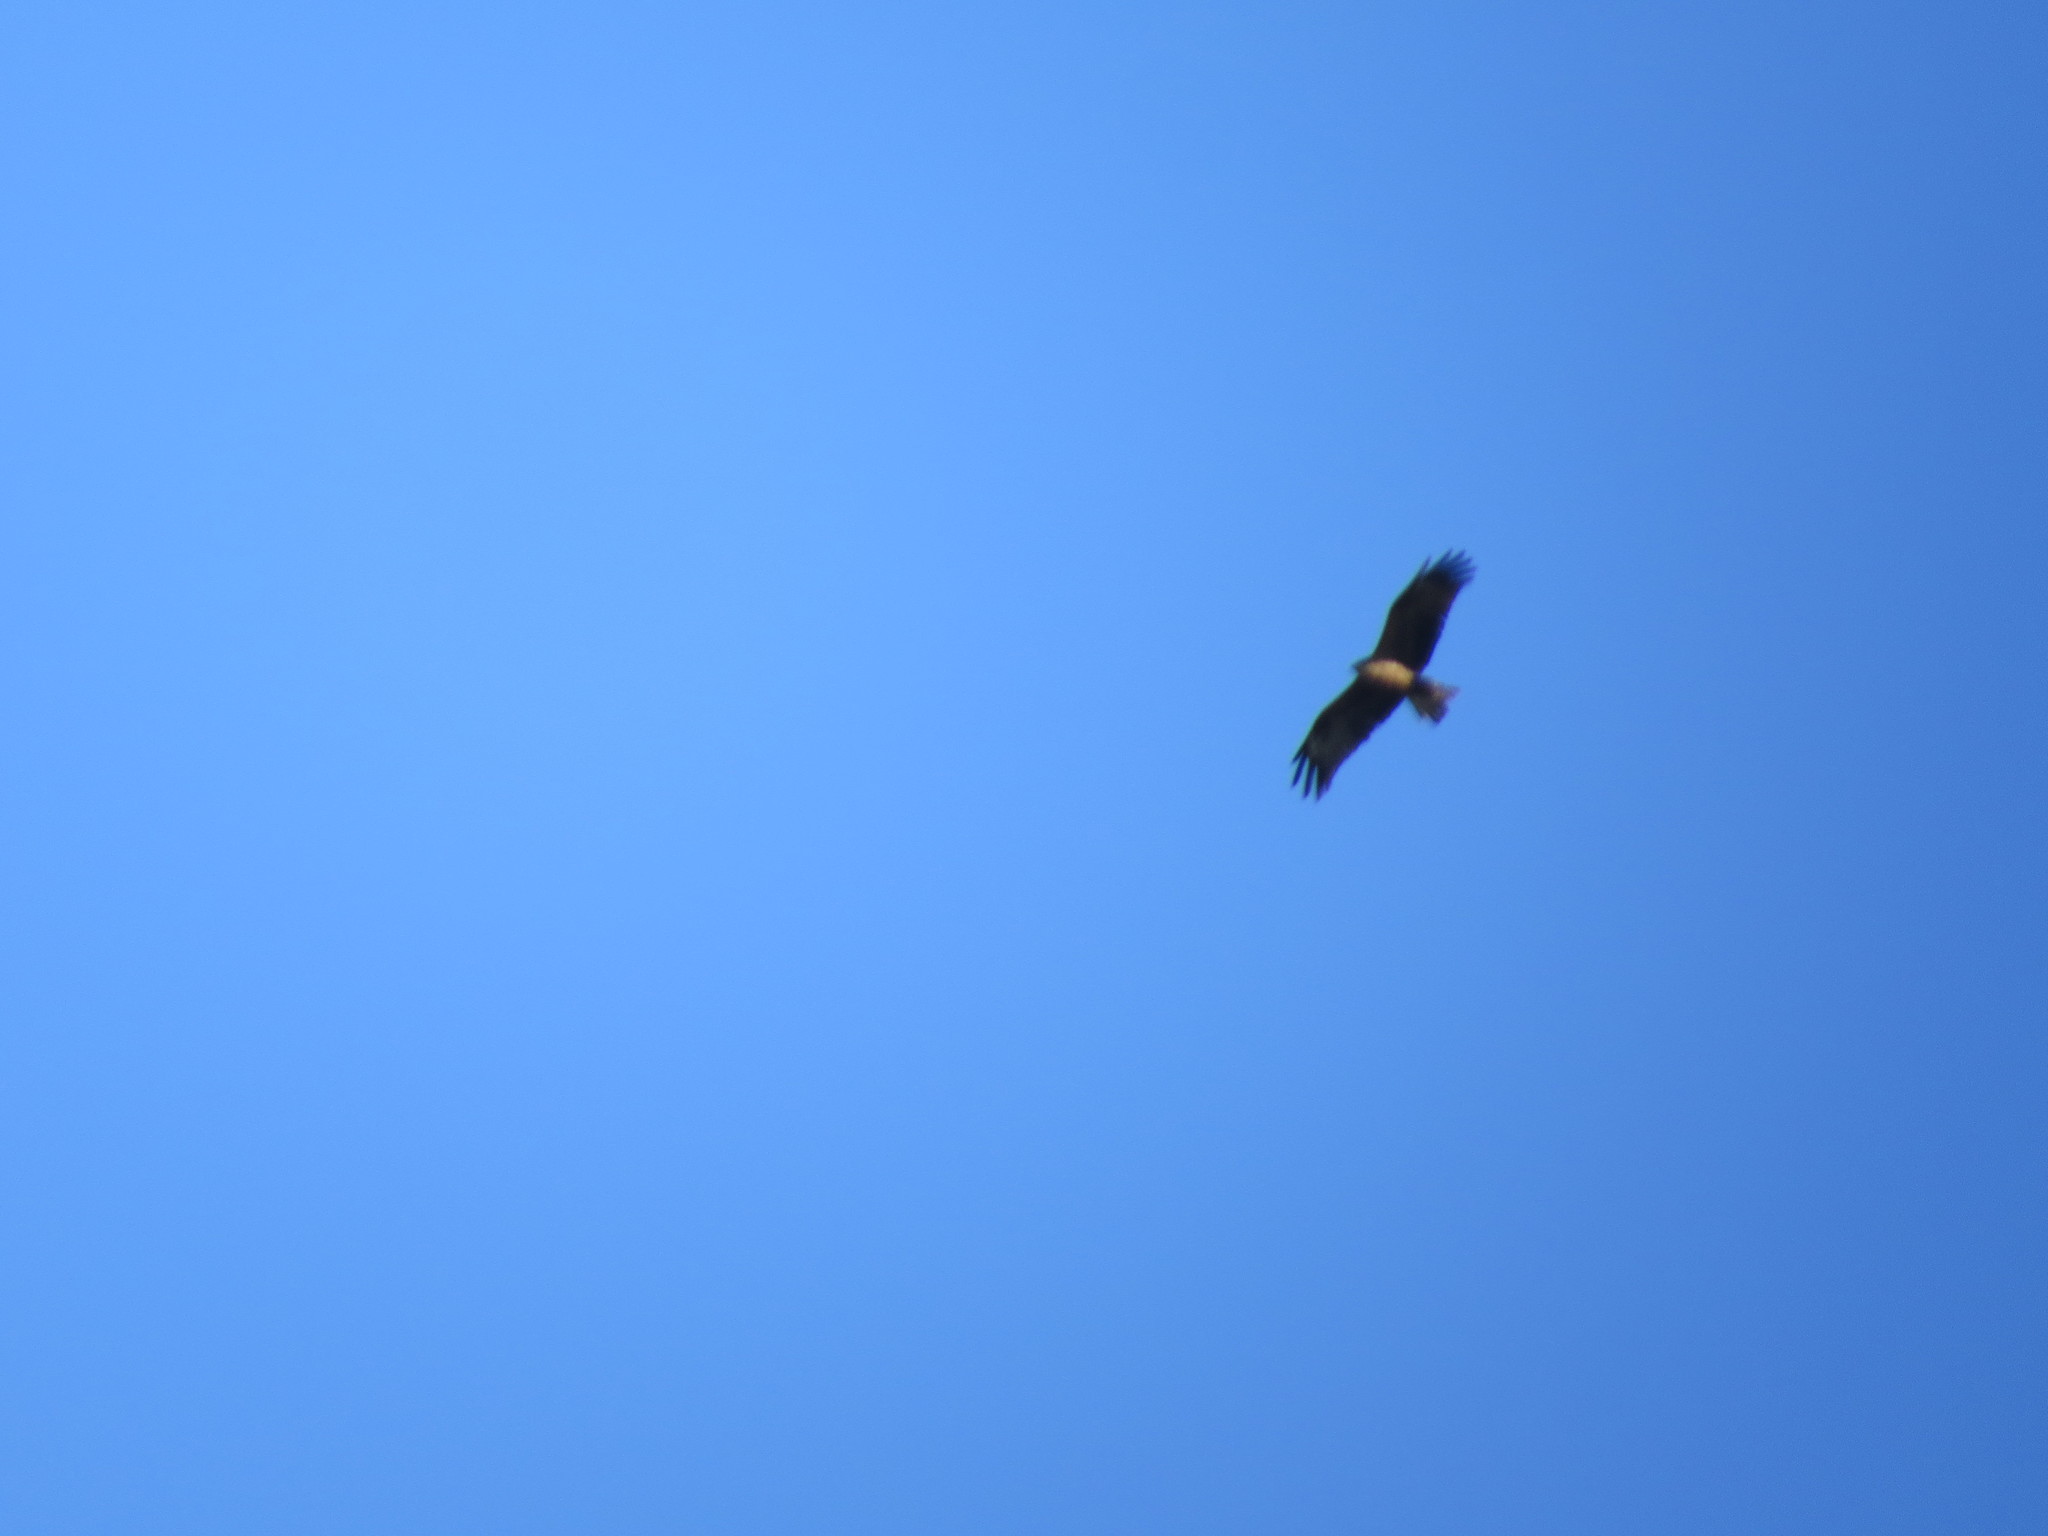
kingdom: Animalia
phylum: Chordata
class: Aves
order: Accipitriformes
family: Accipitridae
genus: Milvus
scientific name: Milvus migrans
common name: Black kite
